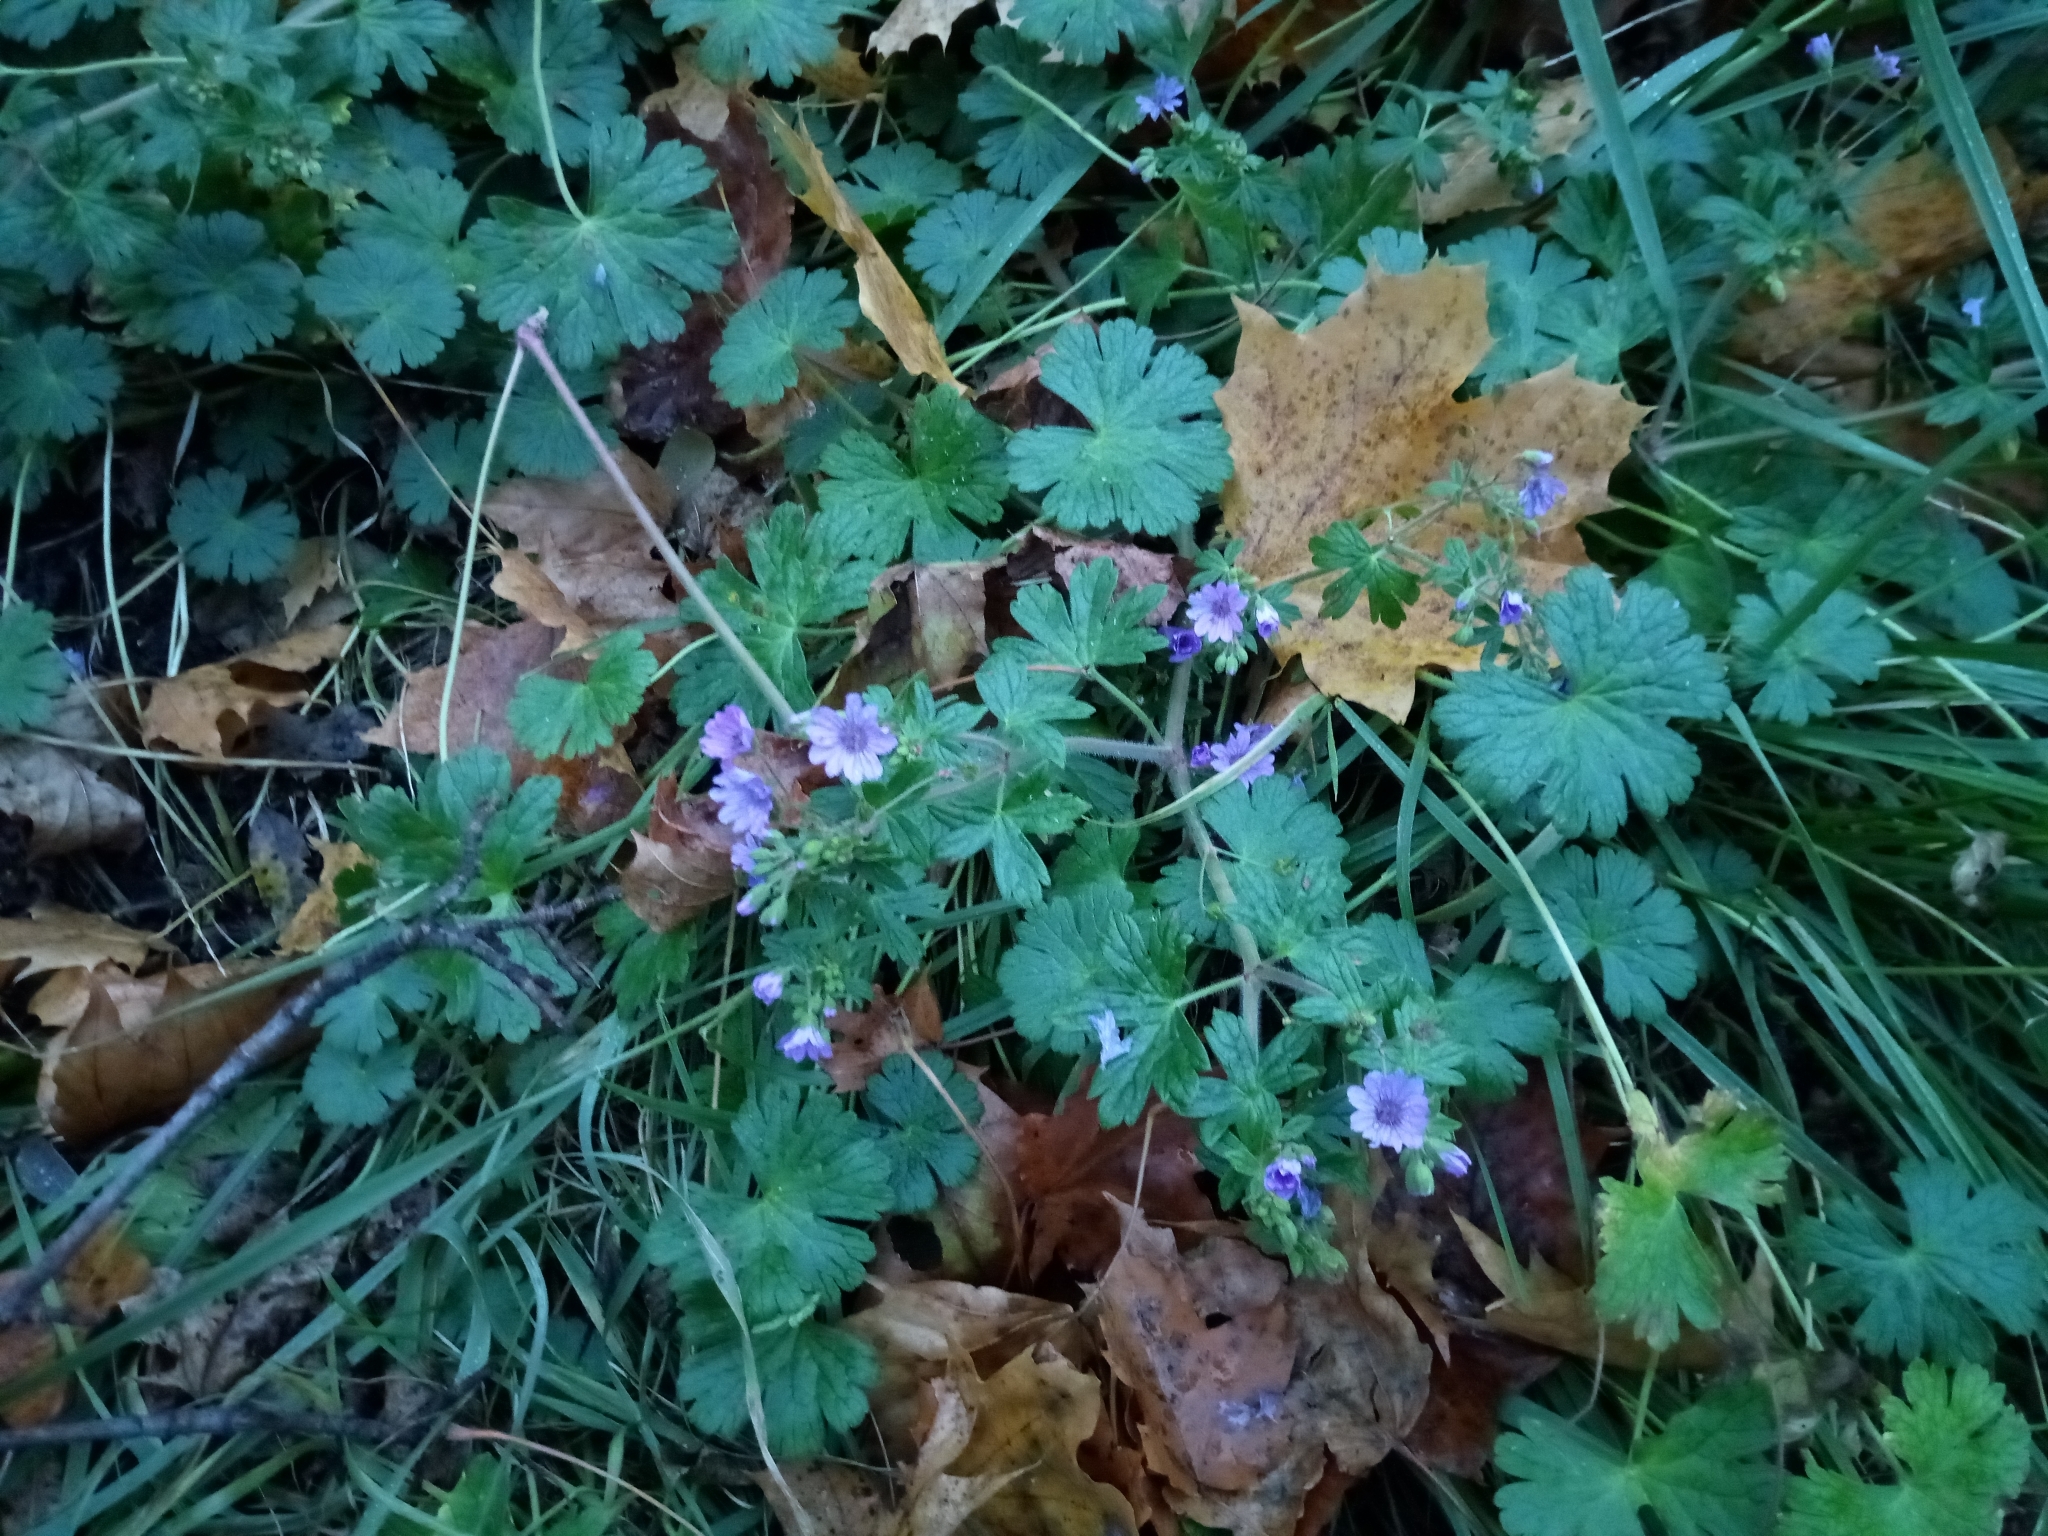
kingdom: Plantae
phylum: Tracheophyta
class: Magnoliopsida
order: Geraniales
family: Geraniaceae
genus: Geranium
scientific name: Geranium pyrenaicum
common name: Hedgerow crane's-bill
